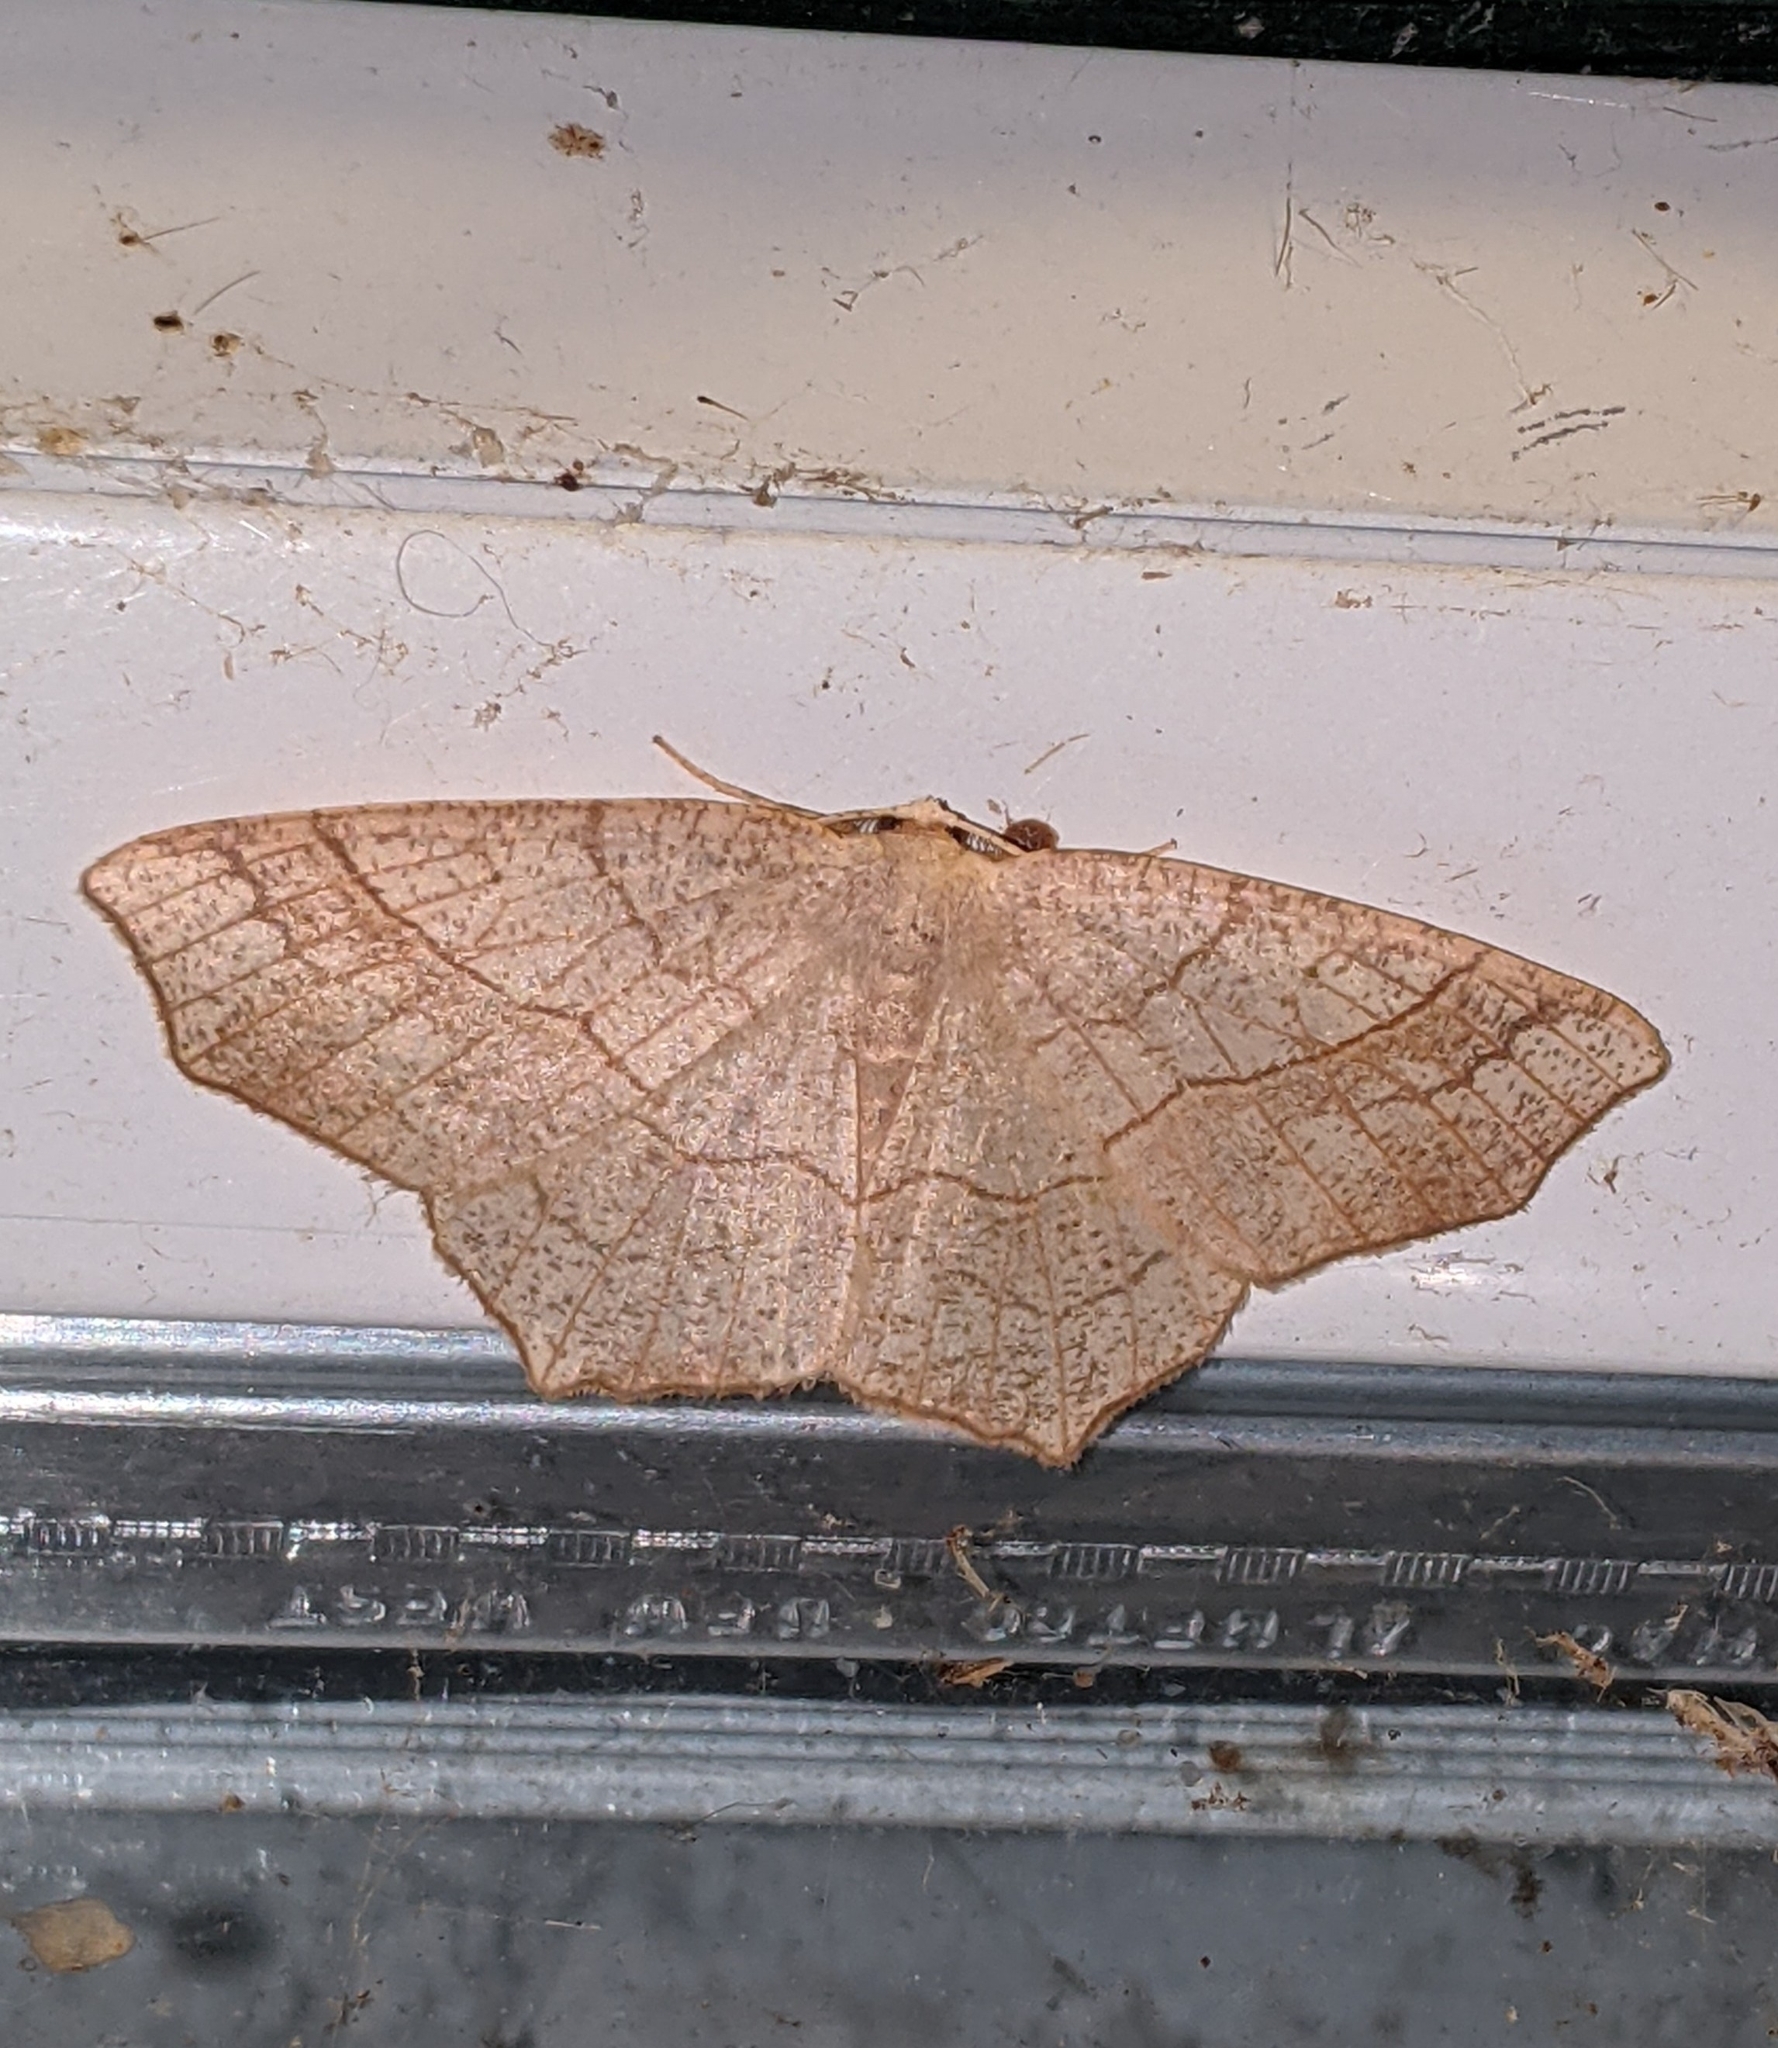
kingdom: Animalia
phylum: Arthropoda
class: Insecta
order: Lepidoptera
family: Geometridae
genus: Besma
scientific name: Besma quercivoraria
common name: Oak besma
